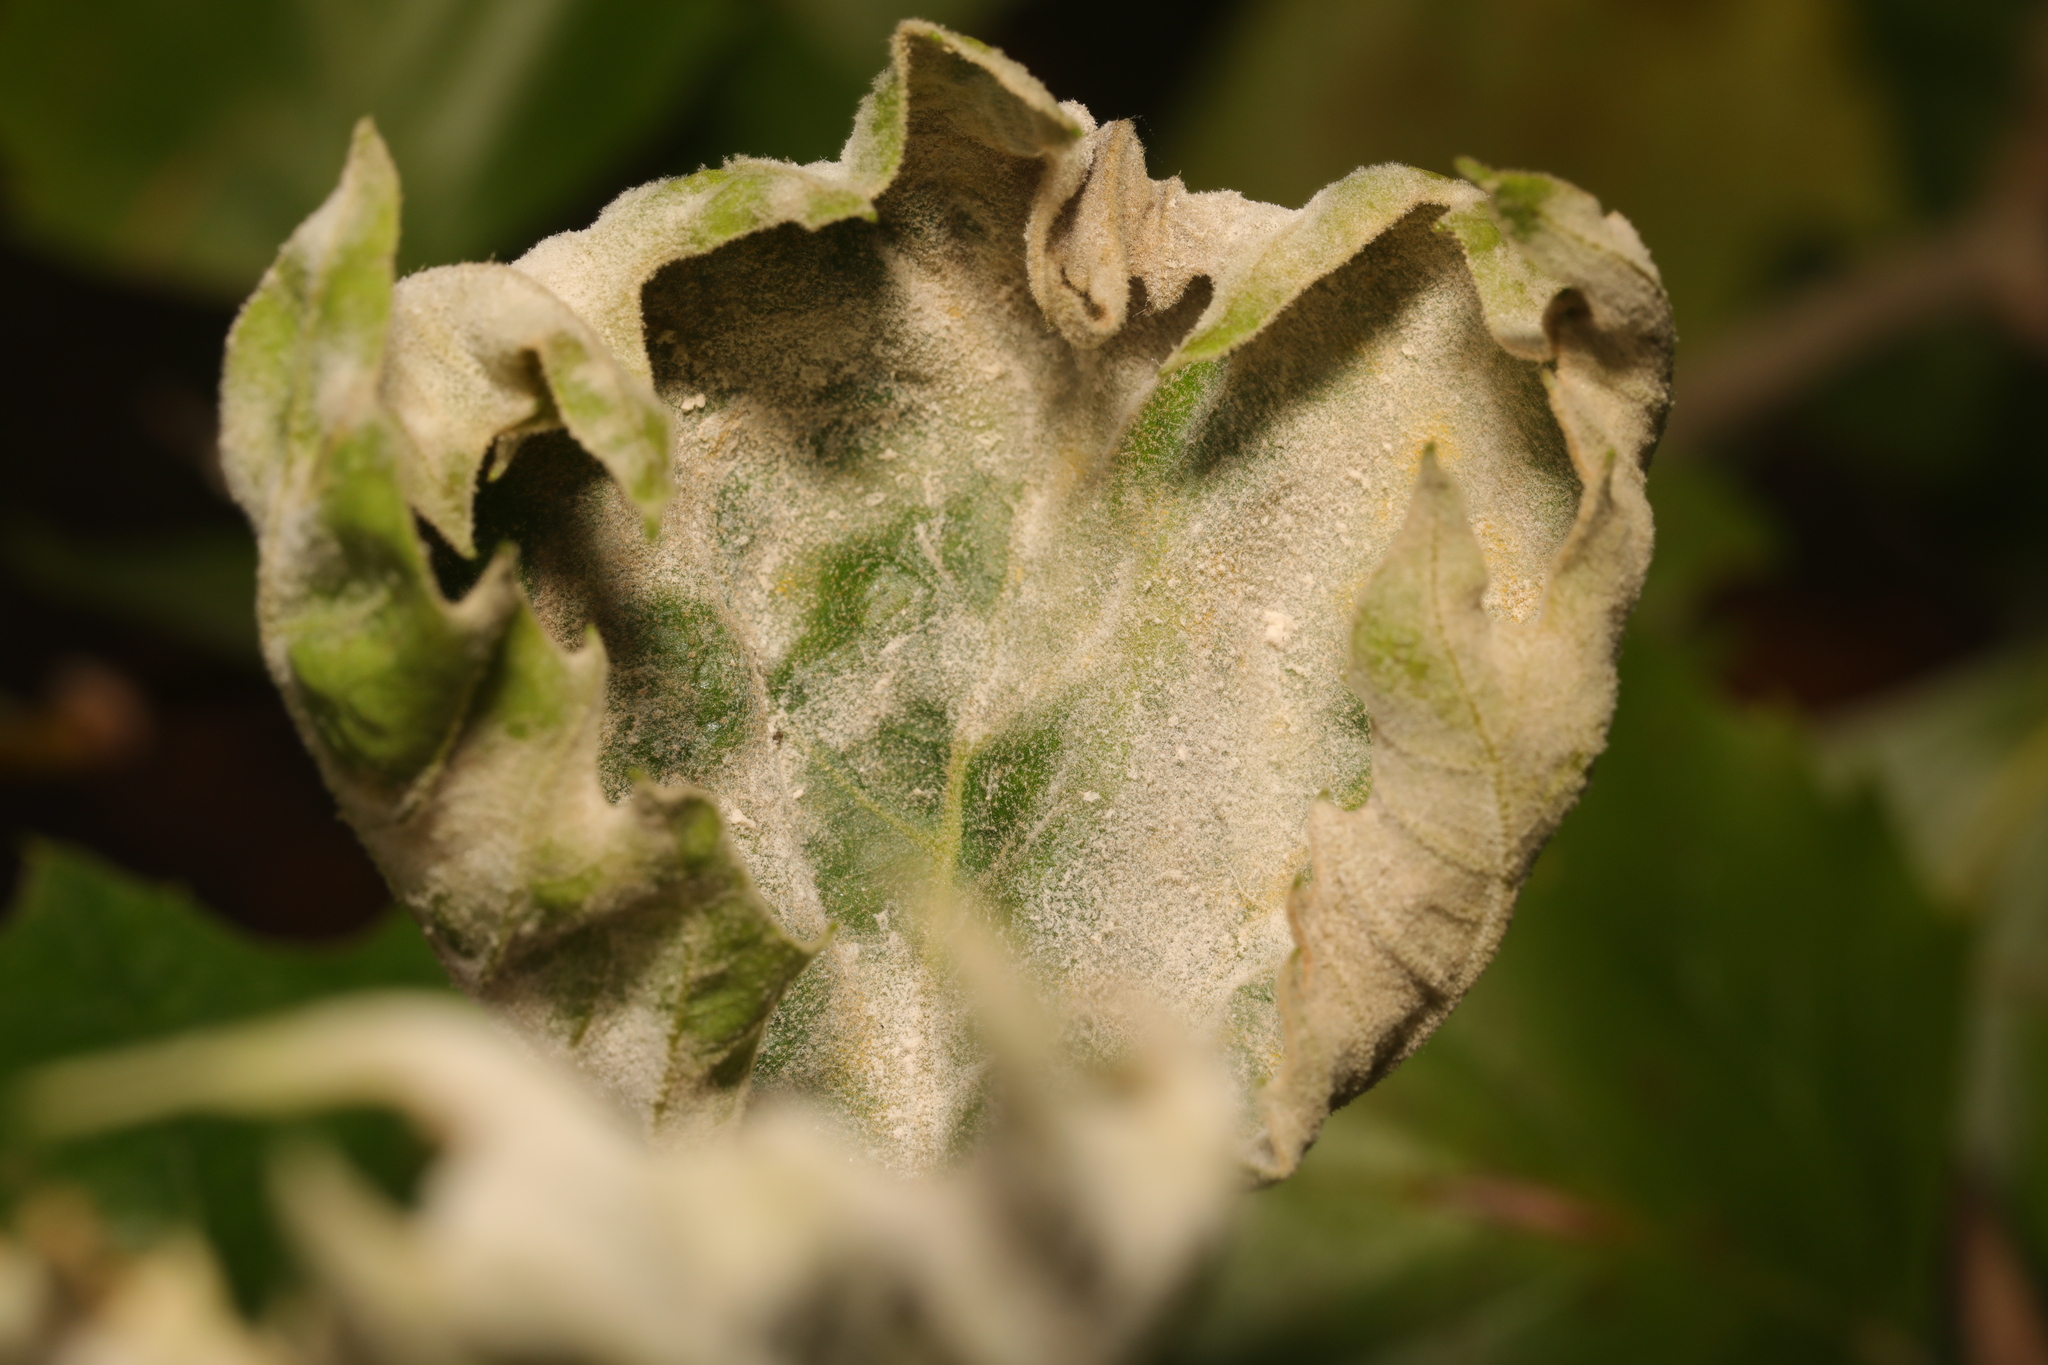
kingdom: Fungi
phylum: Ascomycota
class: Leotiomycetes
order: Helotiales
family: Erysiphaceae
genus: Erysiphe
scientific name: Erysiphe platani
